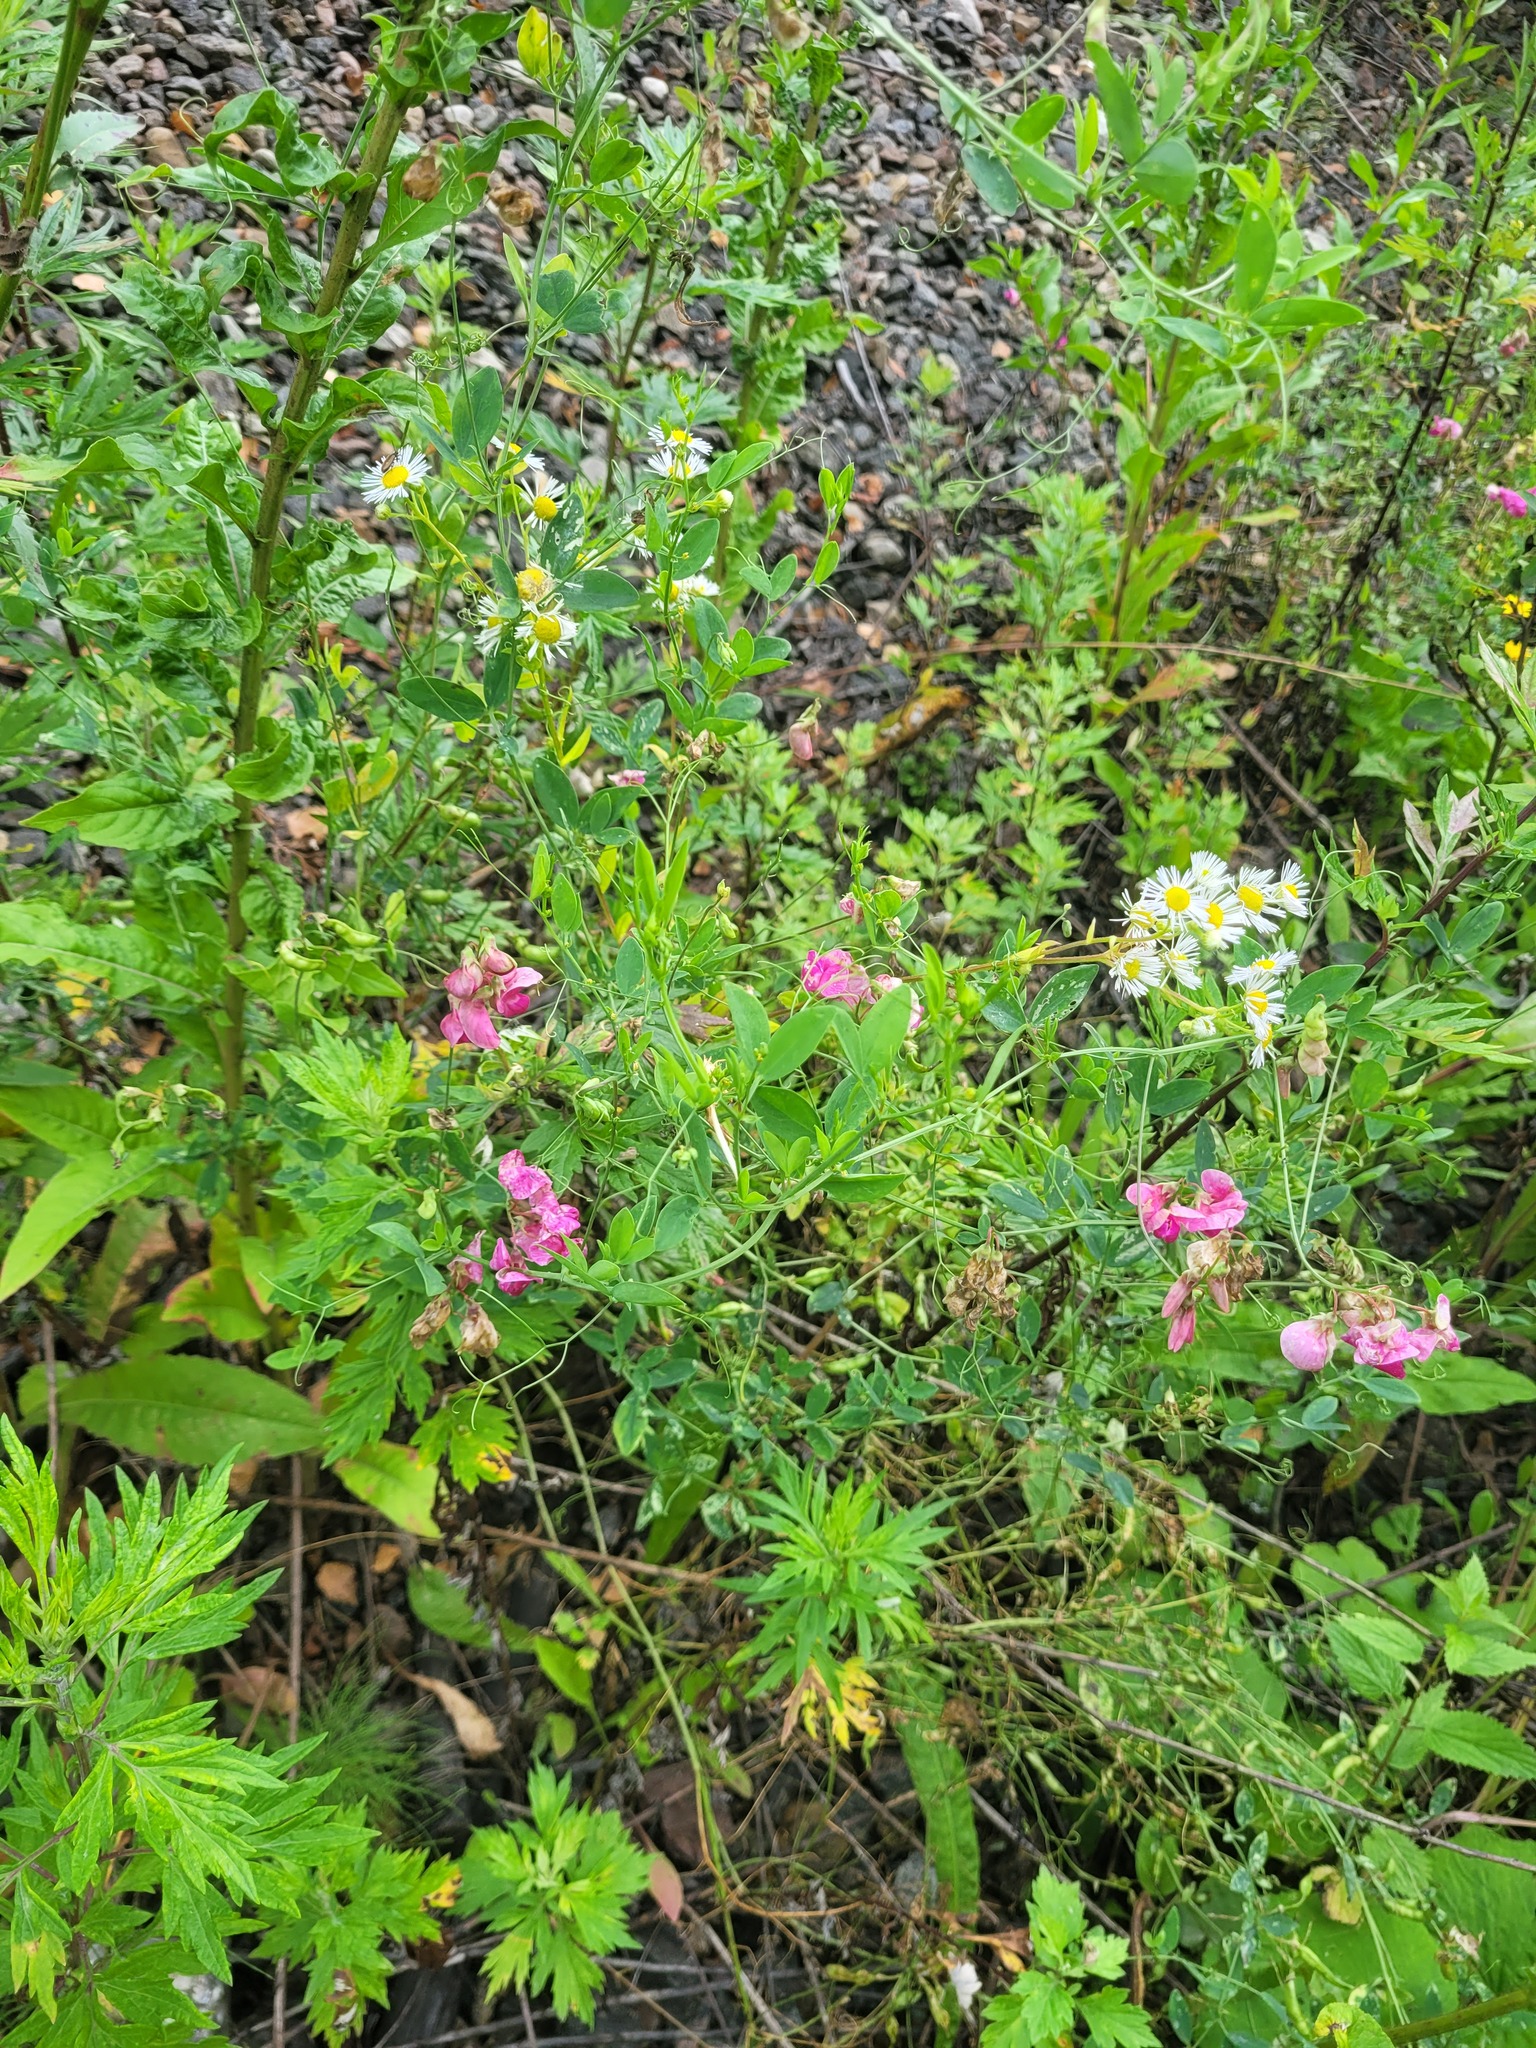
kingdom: Plantae
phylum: Tracheophyta
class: Magnoliopsida
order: Fabales
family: Fabaceae
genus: Lathyrus
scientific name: Lathyrus tuberosus
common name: Tuberous pea
